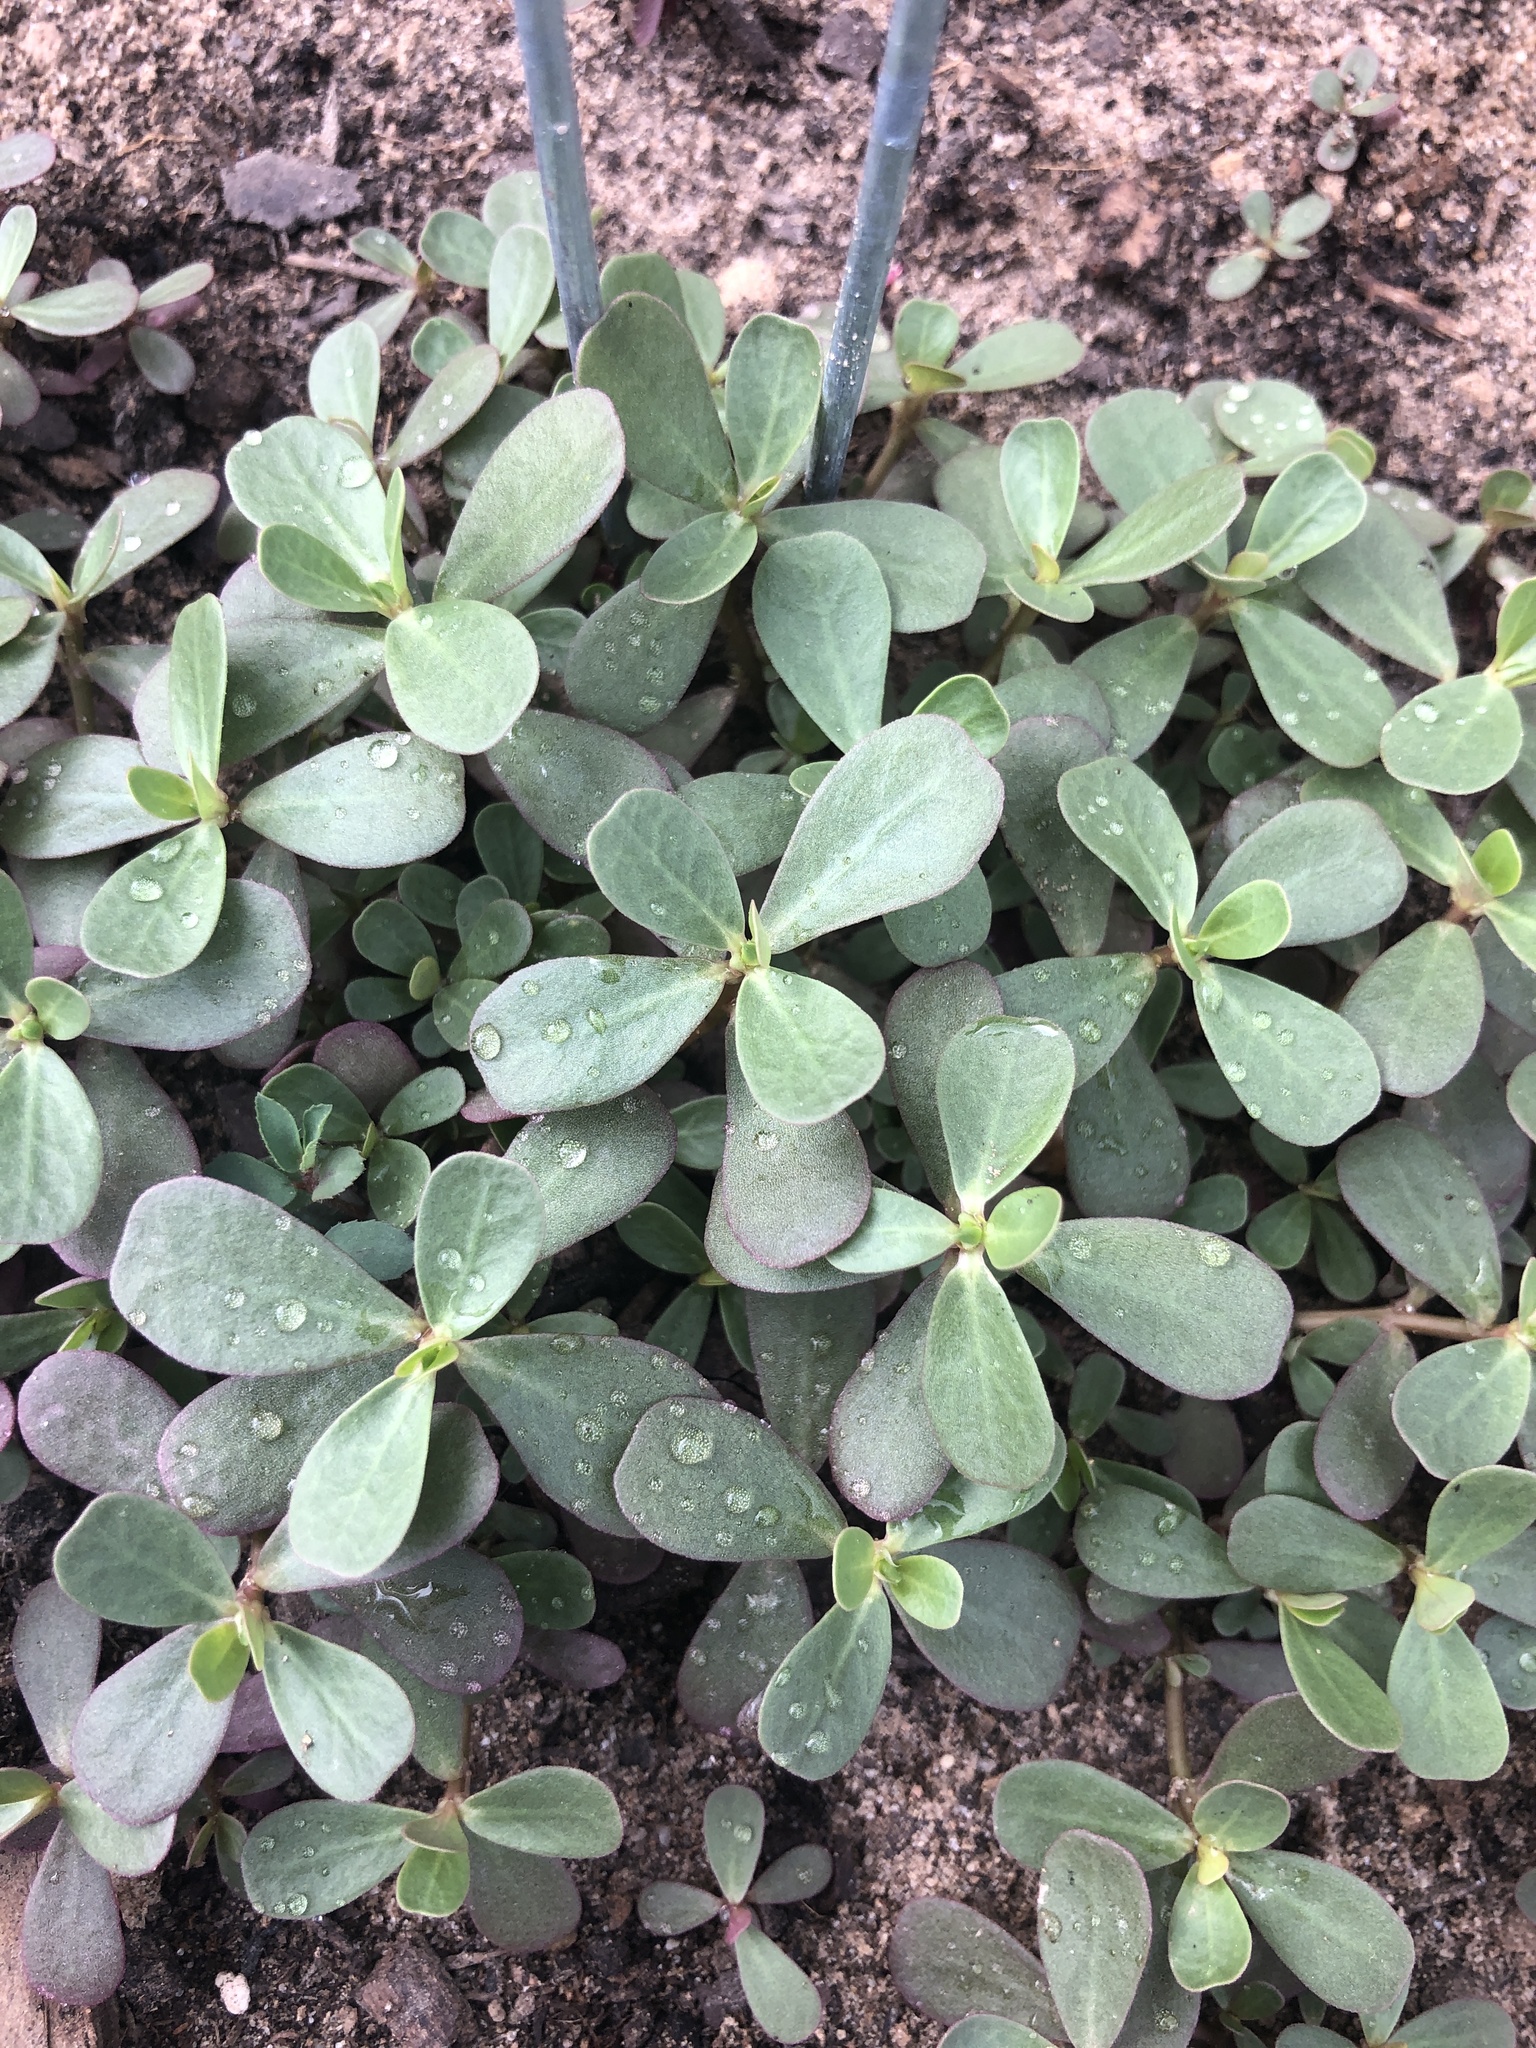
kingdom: Plantae
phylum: Tracheophyta
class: Magnoliopsida
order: Caryophyllales
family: Portulacaceae
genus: Portulaca
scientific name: Portulaca oleracea
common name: Common purslane
